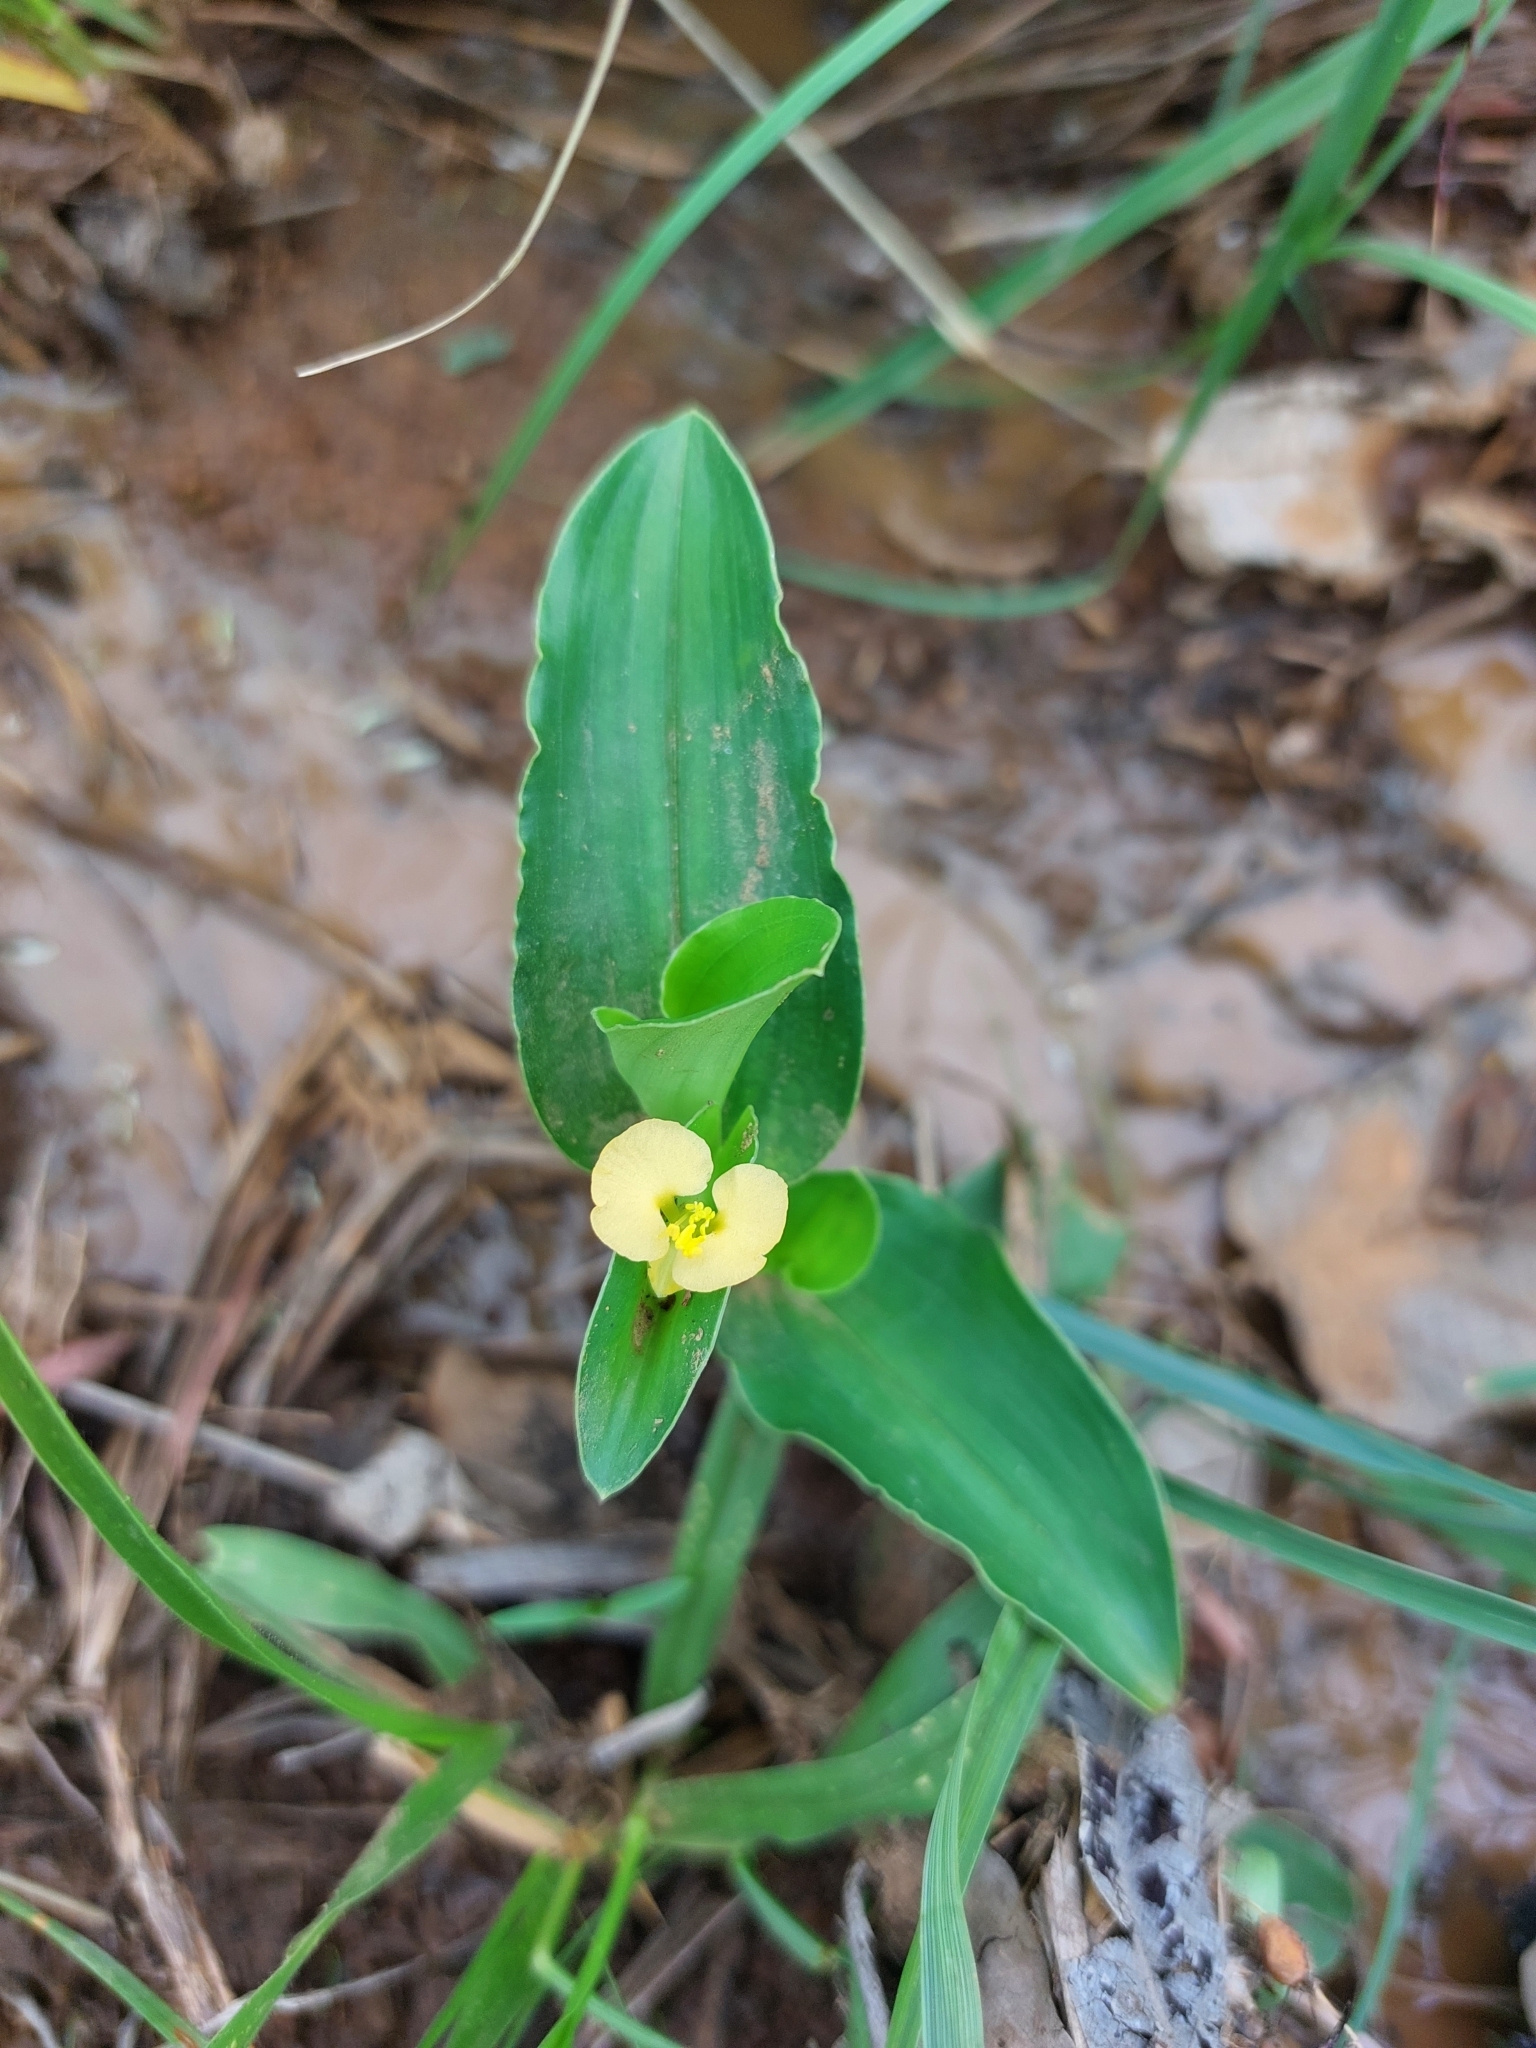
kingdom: Plantae
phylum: Tracheophyta
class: Liliopsida
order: Commelinales
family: Commelinaceae
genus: Commelina
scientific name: Commelina africana
